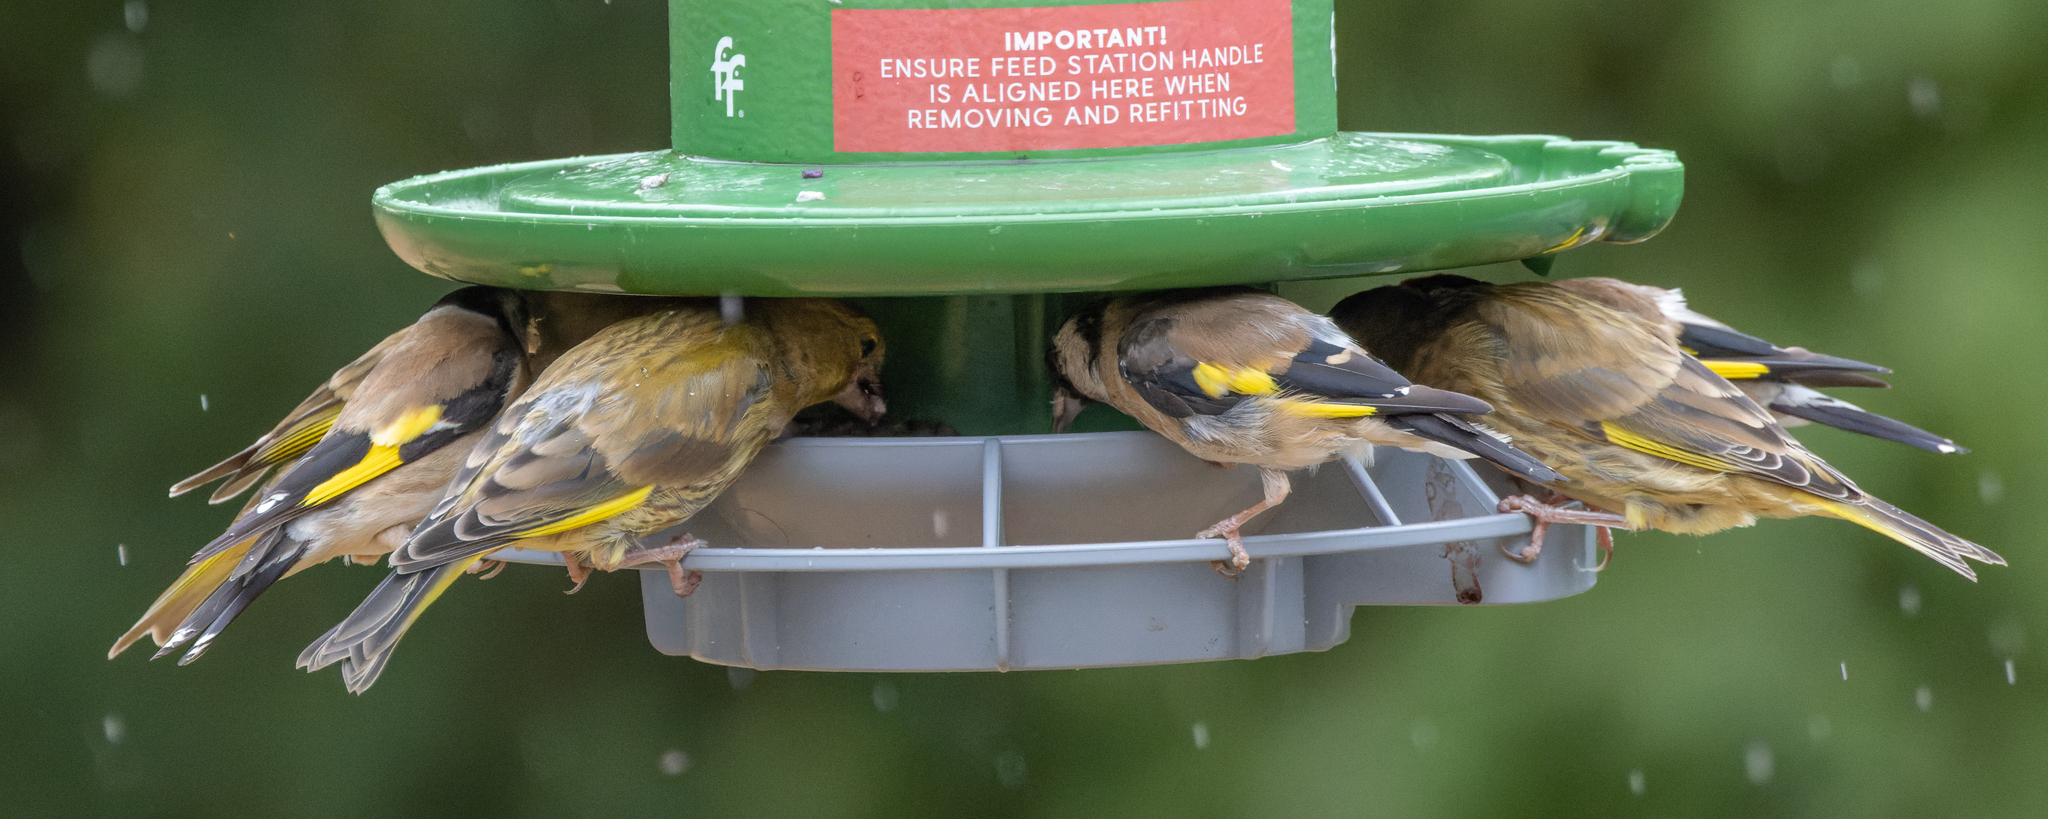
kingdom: Animalia
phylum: Chordata
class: Aves
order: Passeriformes
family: Fringillidae
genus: Carduelis
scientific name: Carduelis carduelis
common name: European goldfinch
